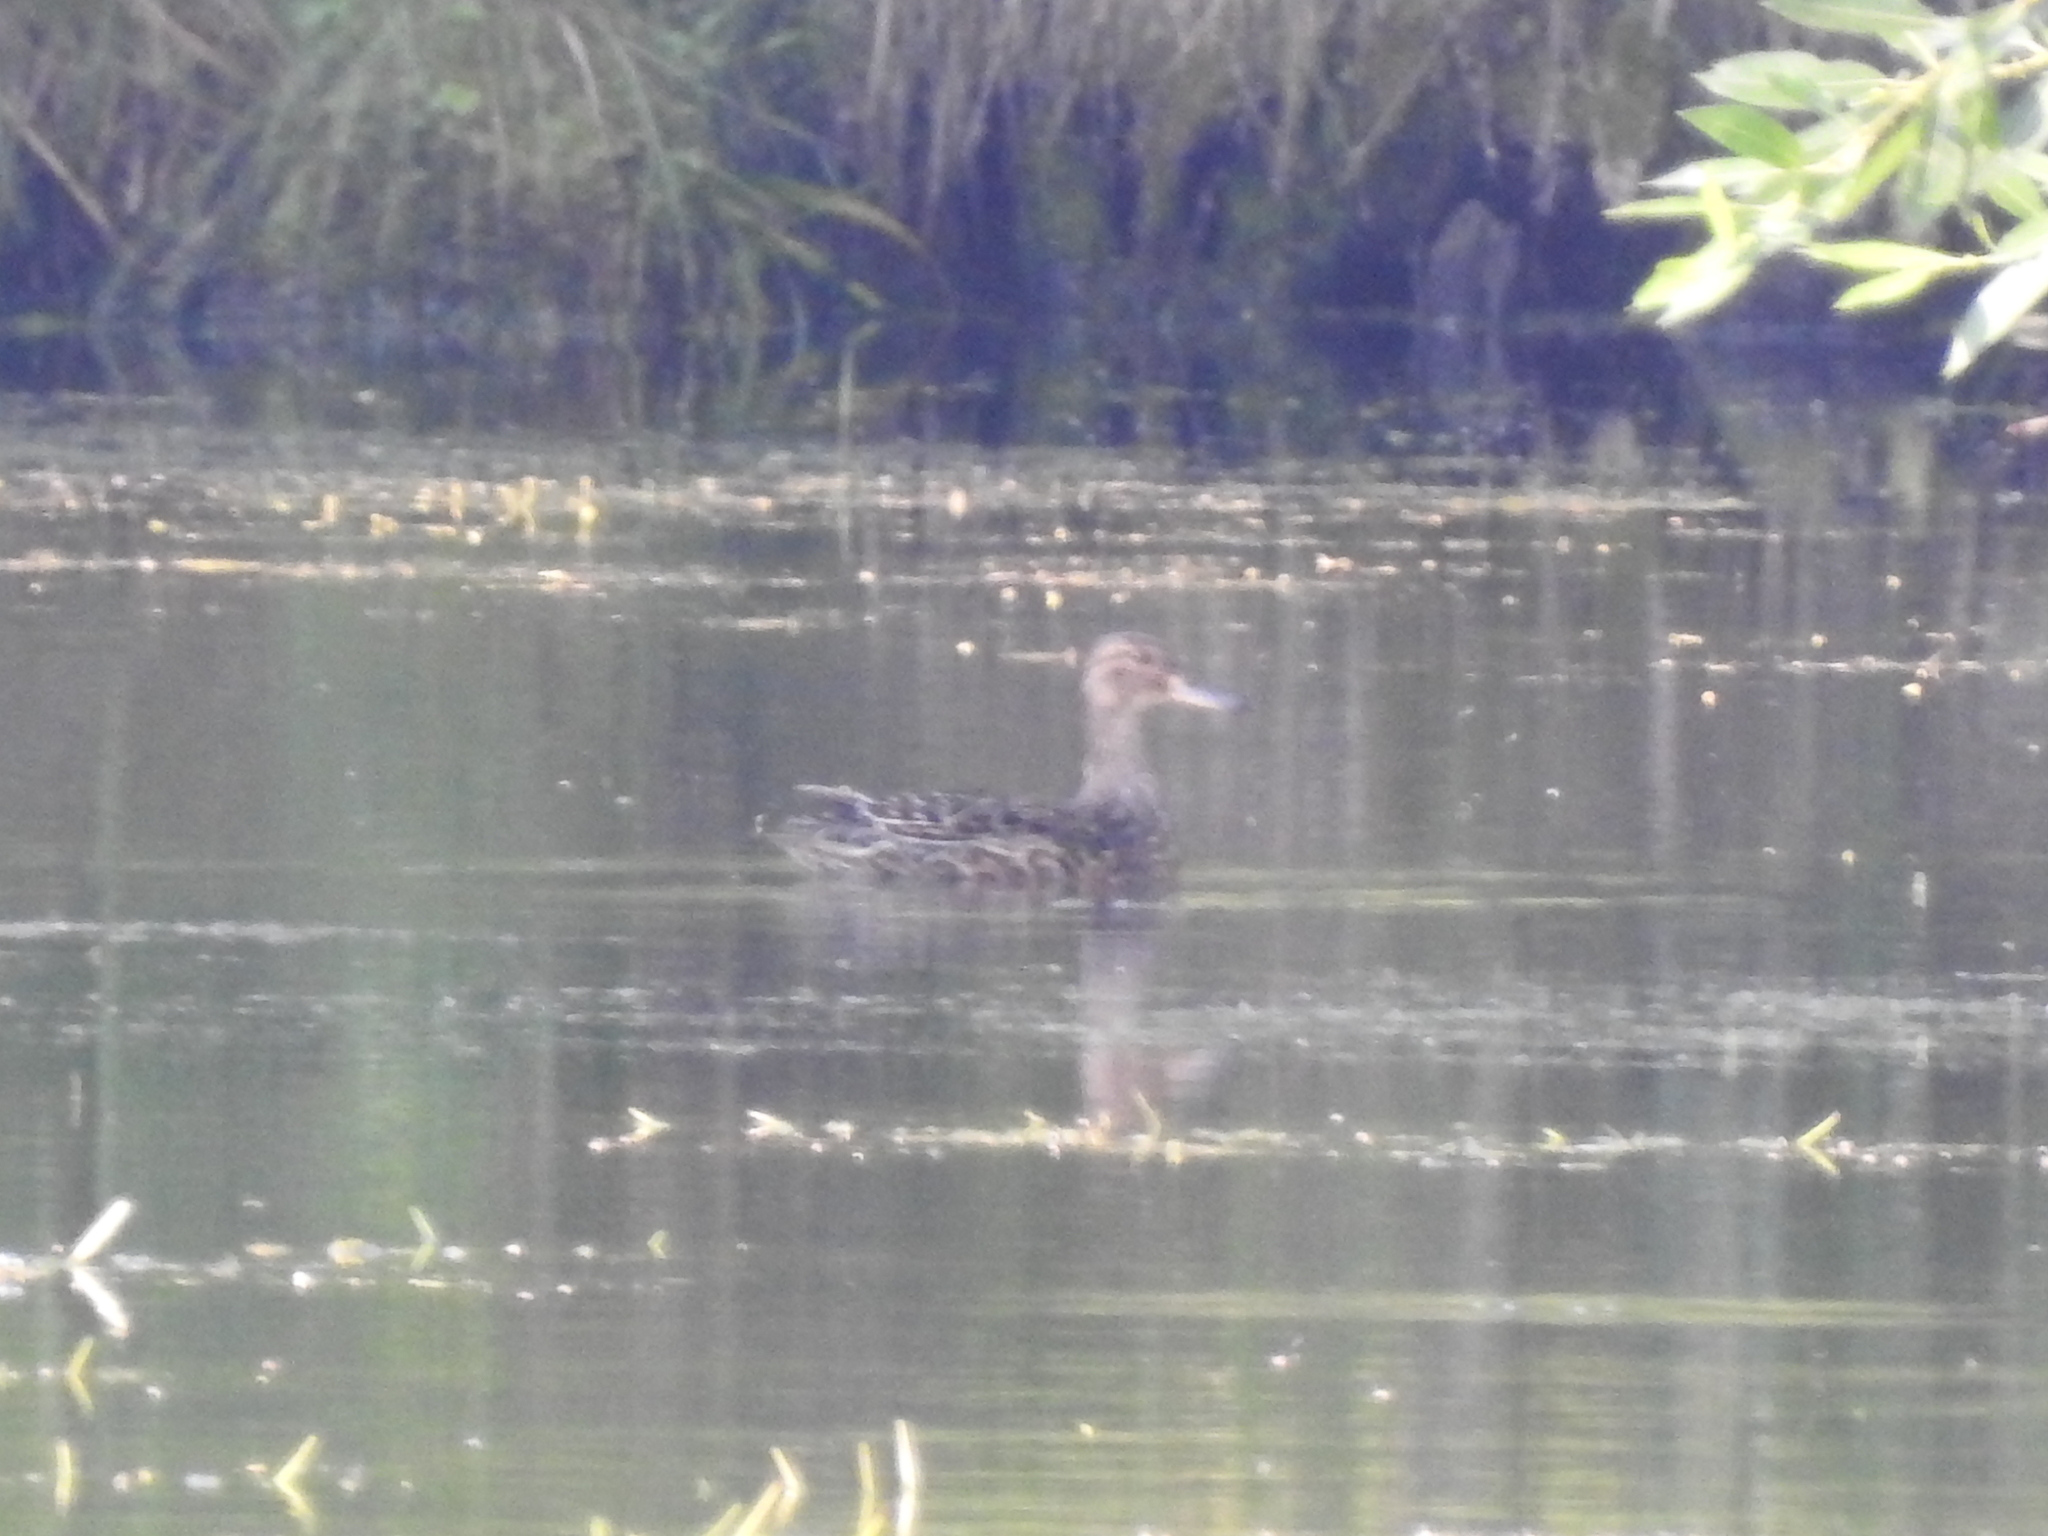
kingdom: Animalia
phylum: Chordata
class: Aves
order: Anseriformes
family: Anatidae
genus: Anas
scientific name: Anas crecca
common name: Eurasian teal
